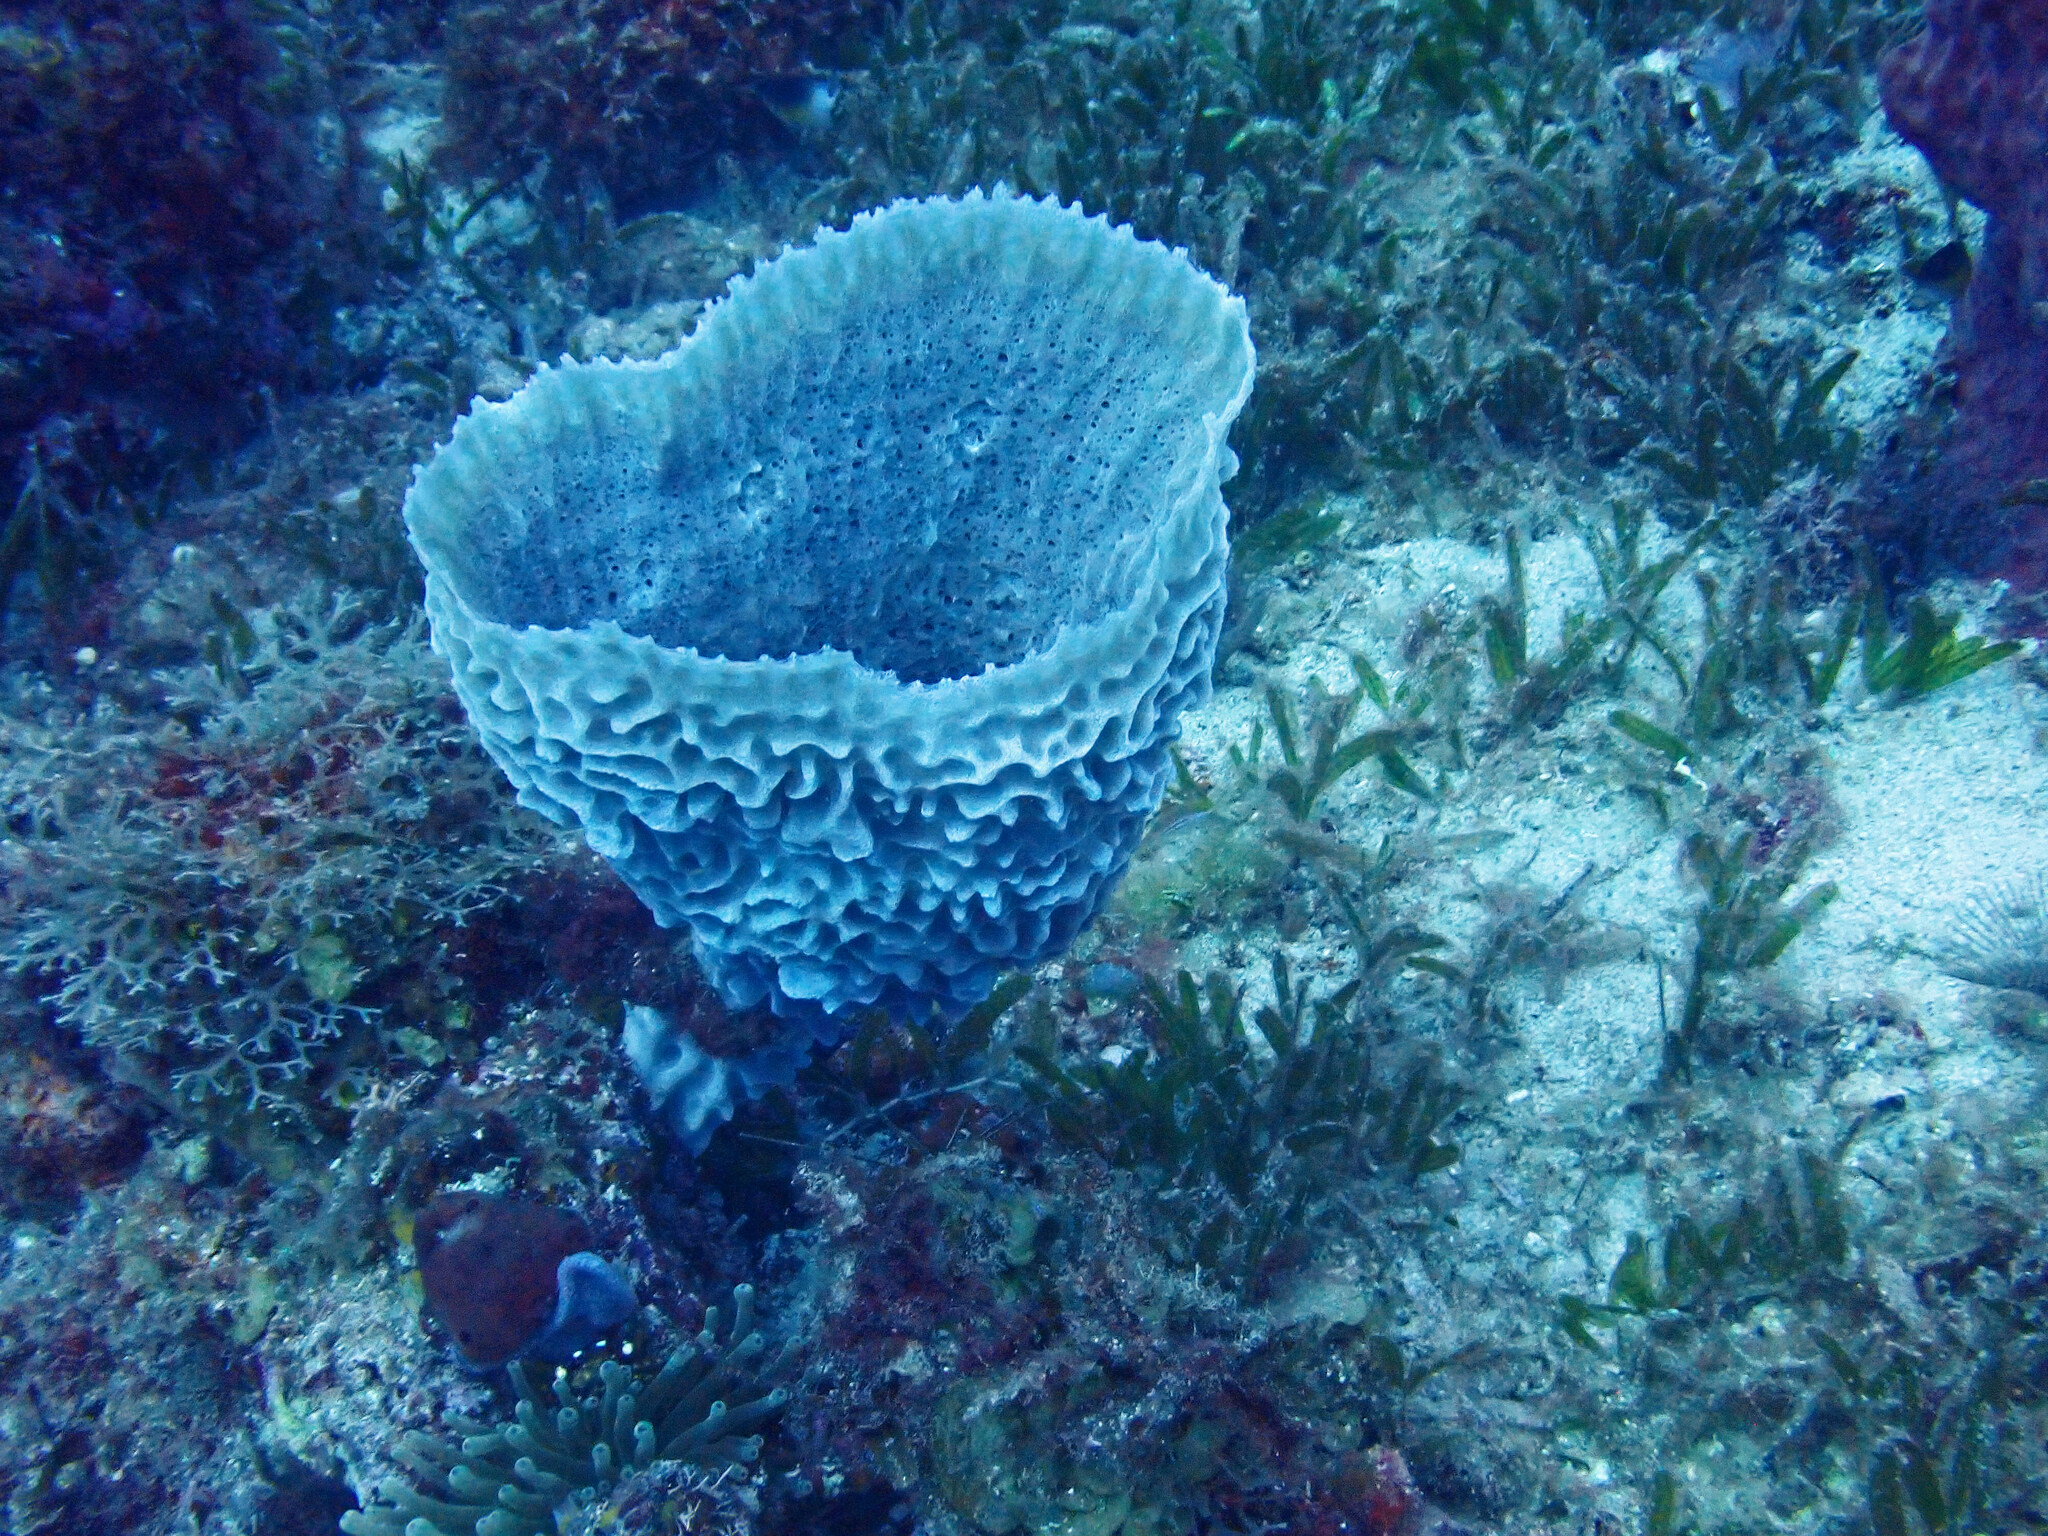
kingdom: Animalia
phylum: Porifera
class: Demospongiae
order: Haplosclerida
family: Callyspongiidae
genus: Callyspongia
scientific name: Callyspongia plicifera
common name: Azure vase sponge
